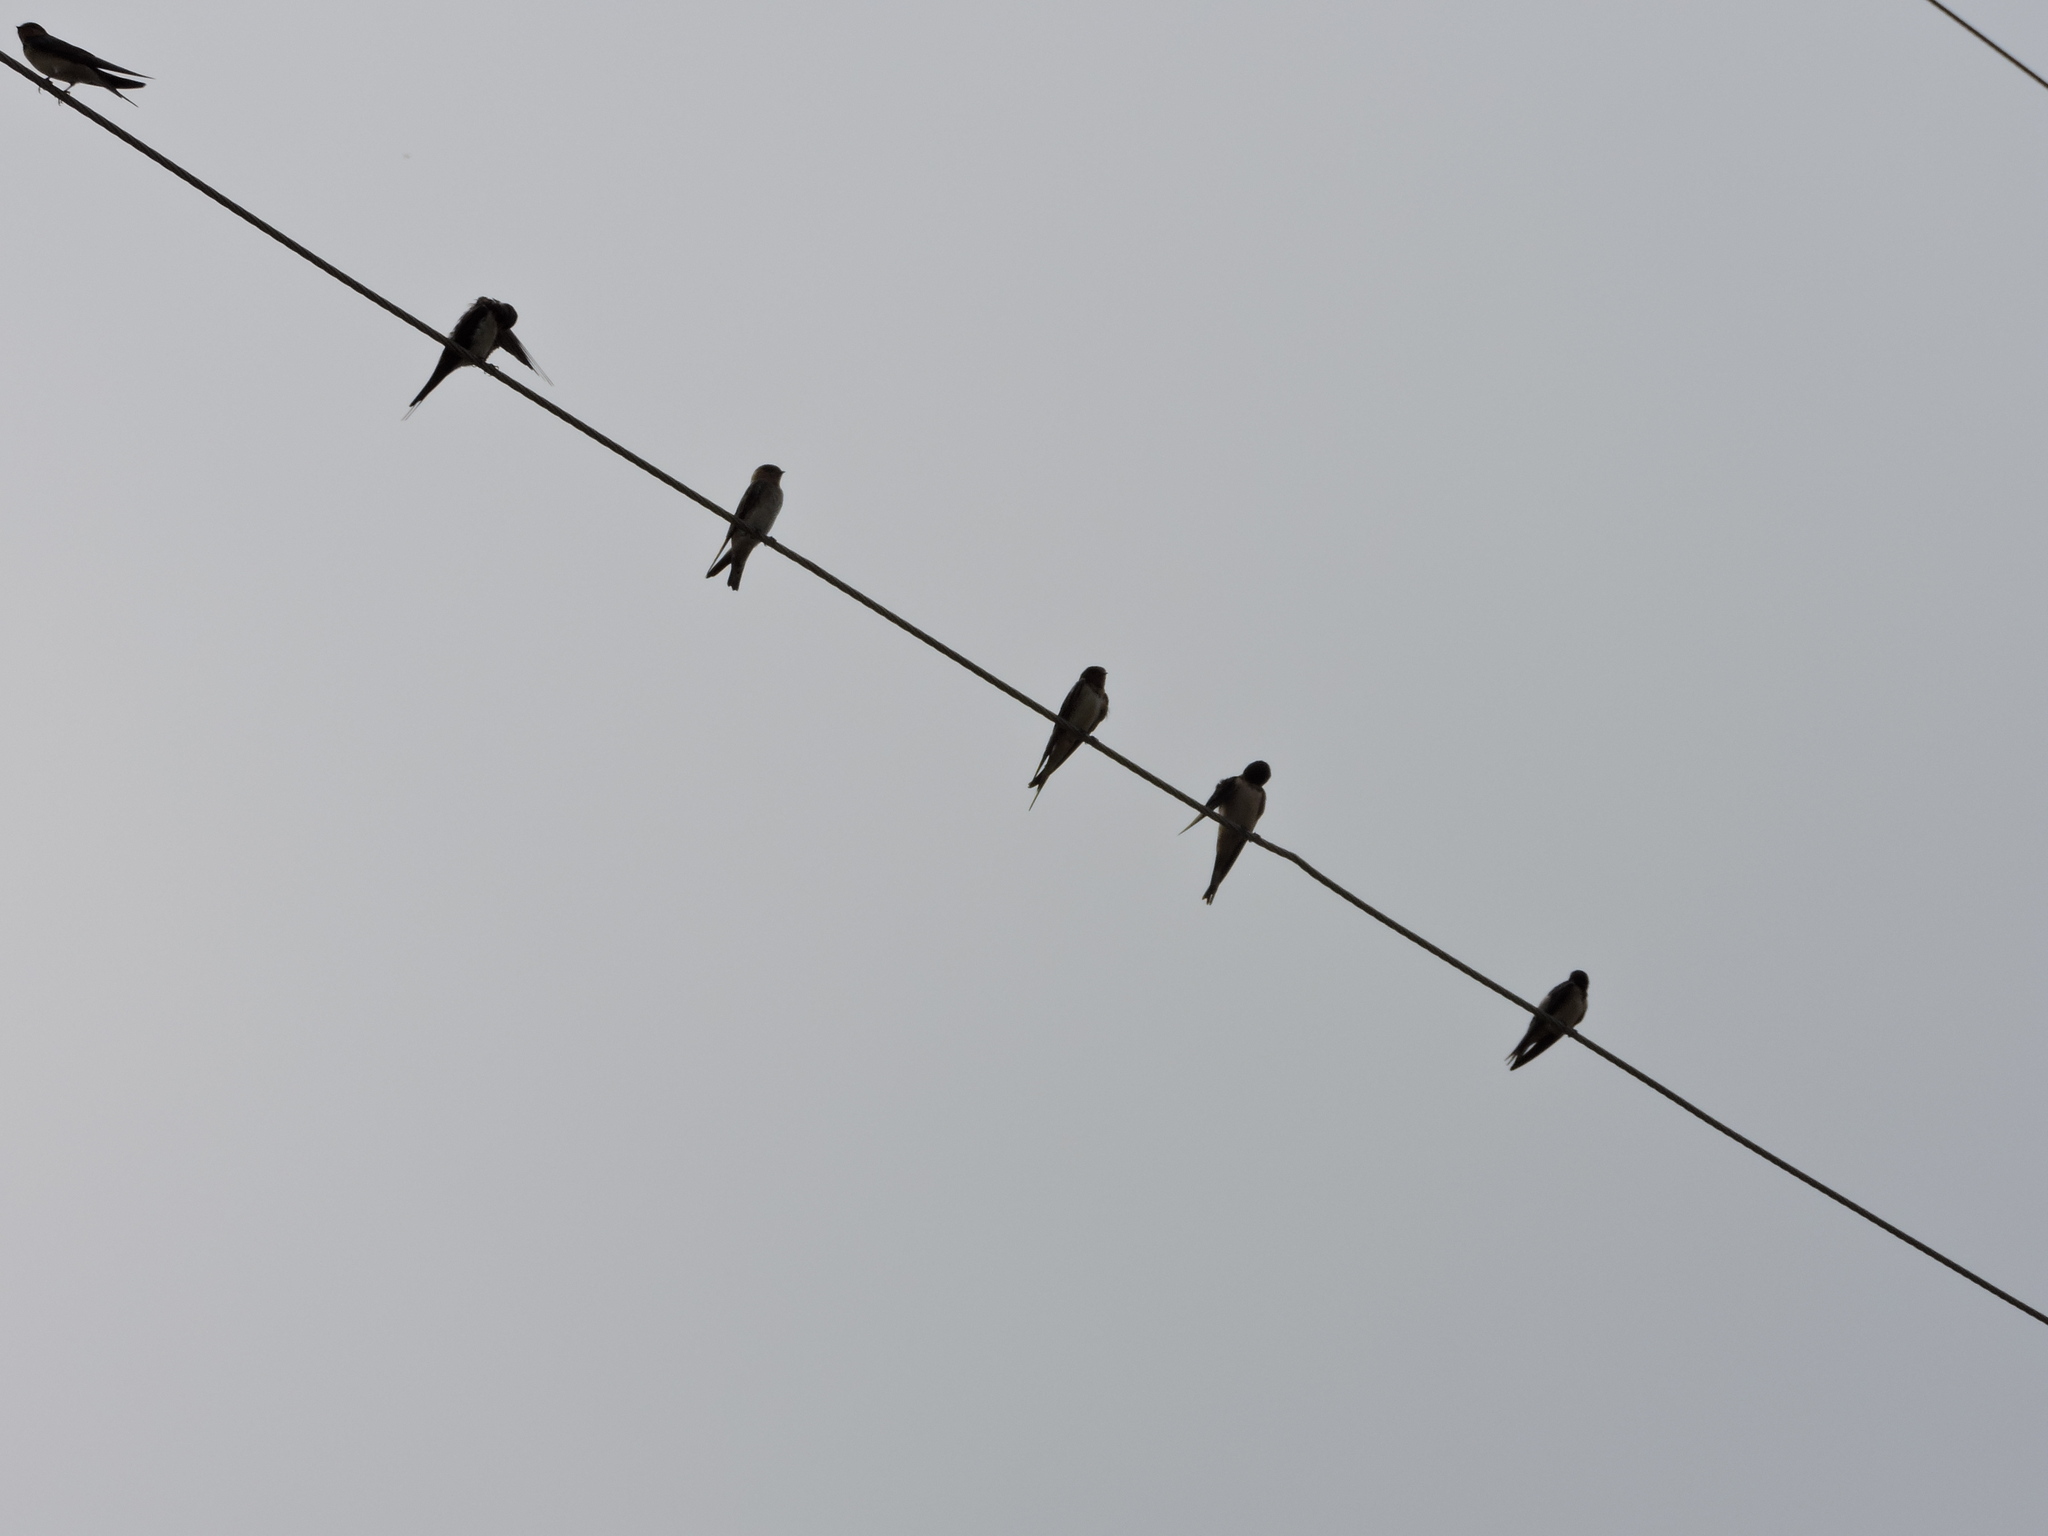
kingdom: Animalia
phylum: Chordata
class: Aves
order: Passeriformes
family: Hirundinidae
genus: Hirundo
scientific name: Hirundo rustica
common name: Barn swallow
